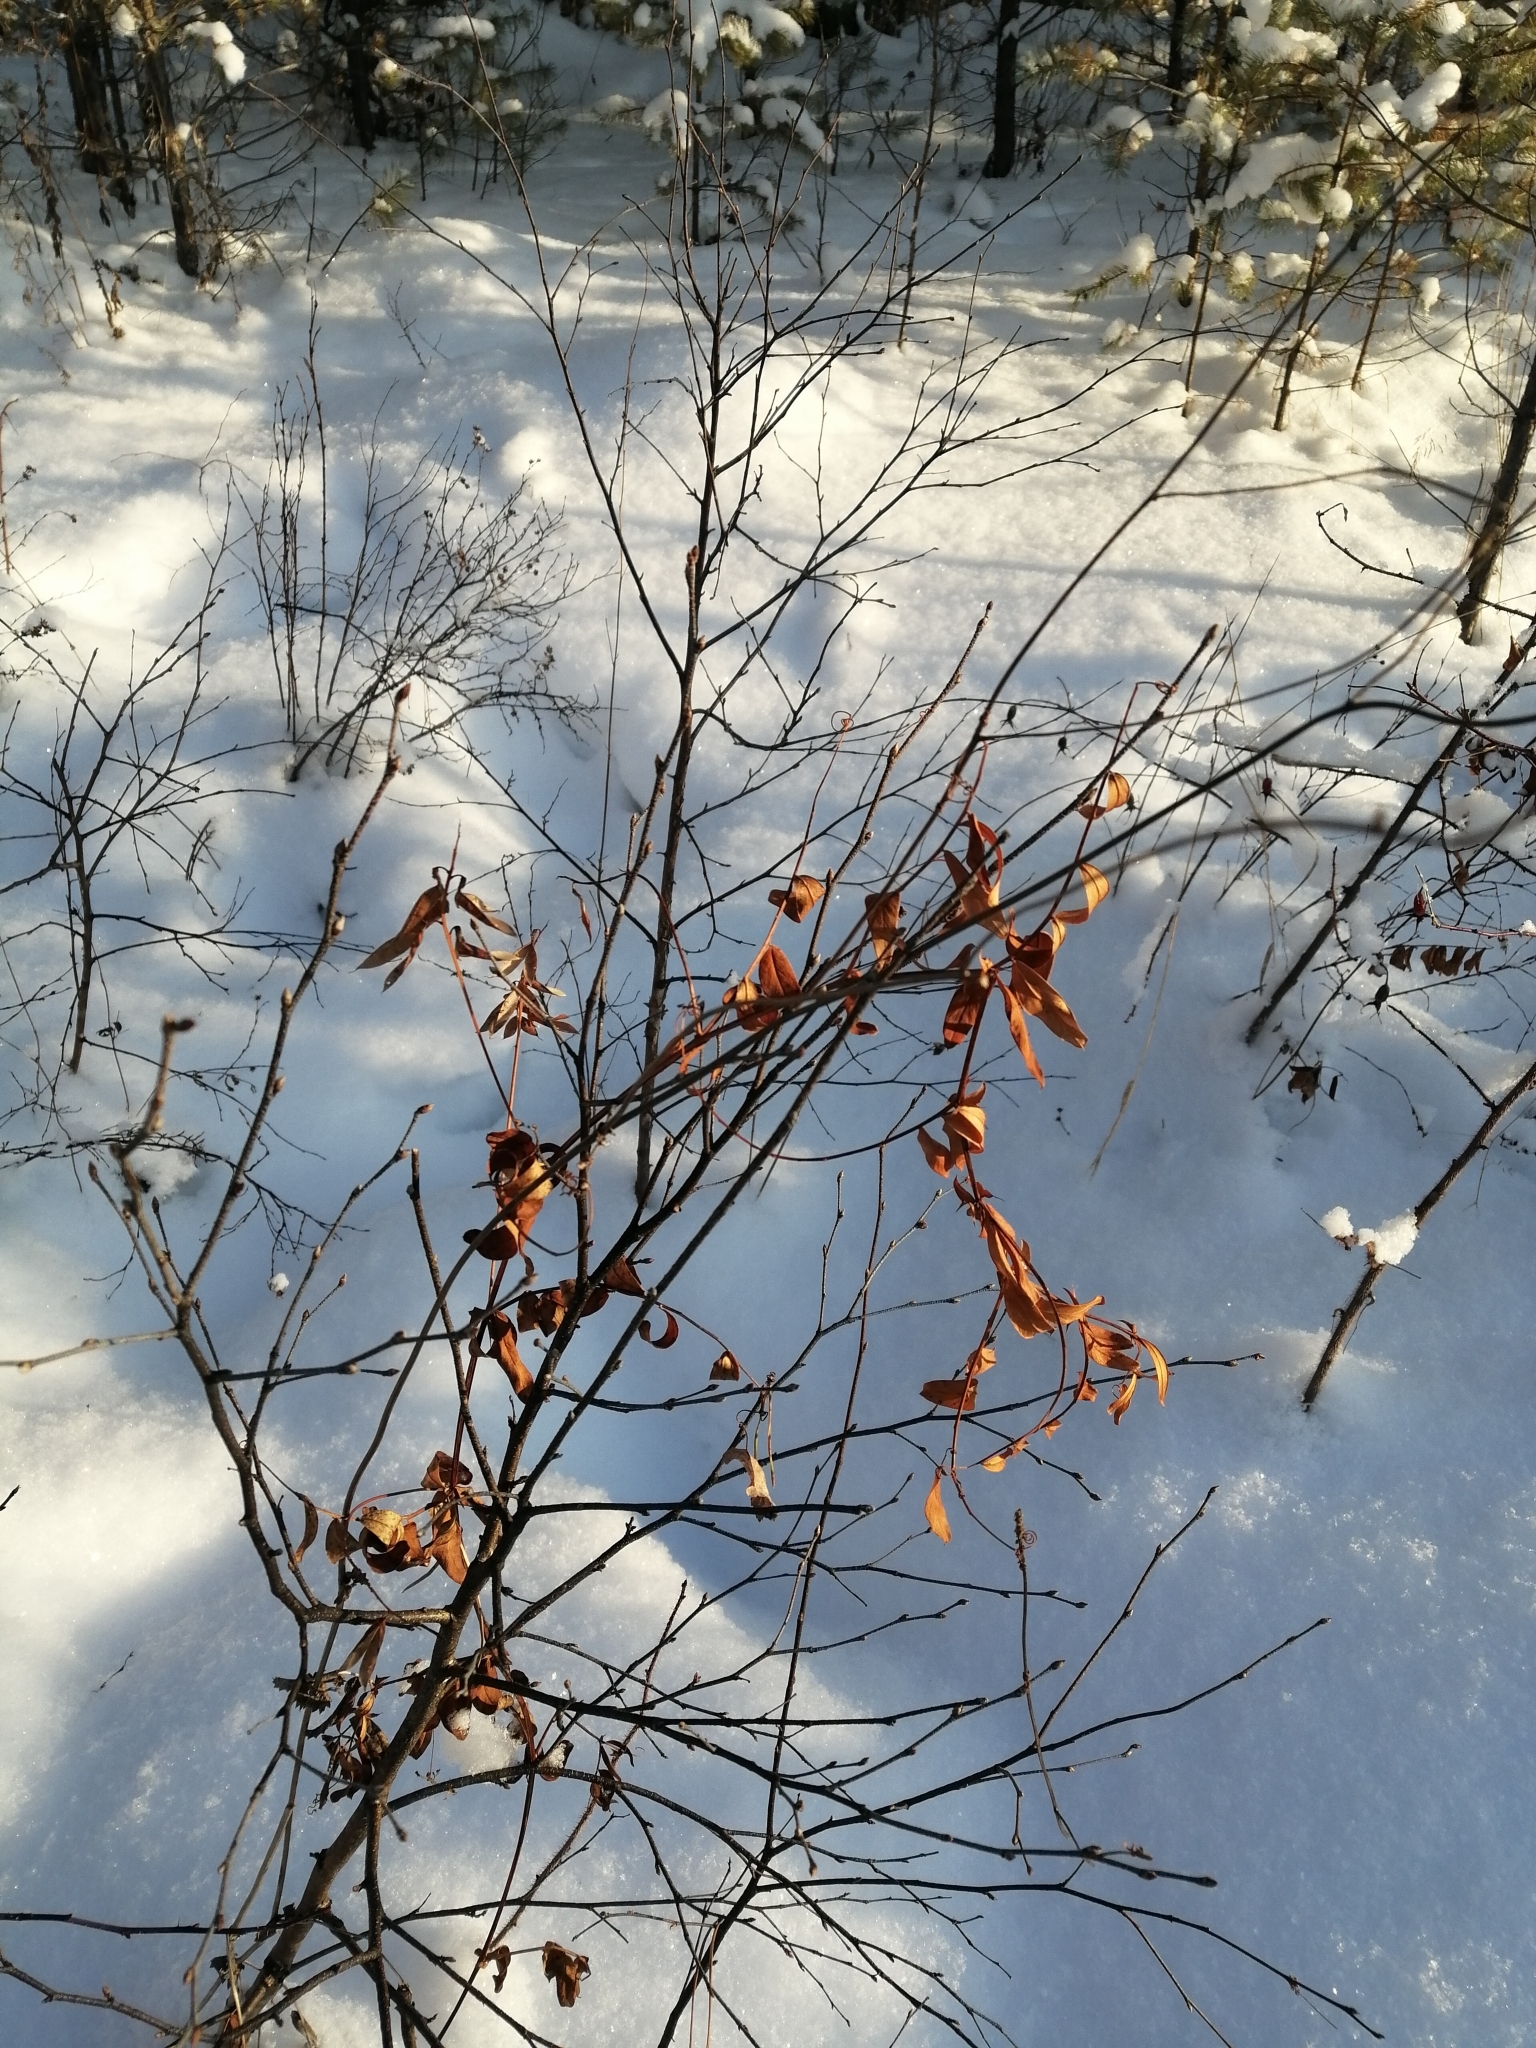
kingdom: Plantae
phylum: Tracheophyta
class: Magnoliopsida
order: Fabales
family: Fabaceae
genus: Vicia
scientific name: Vicia amoena
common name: Cheder ebs
